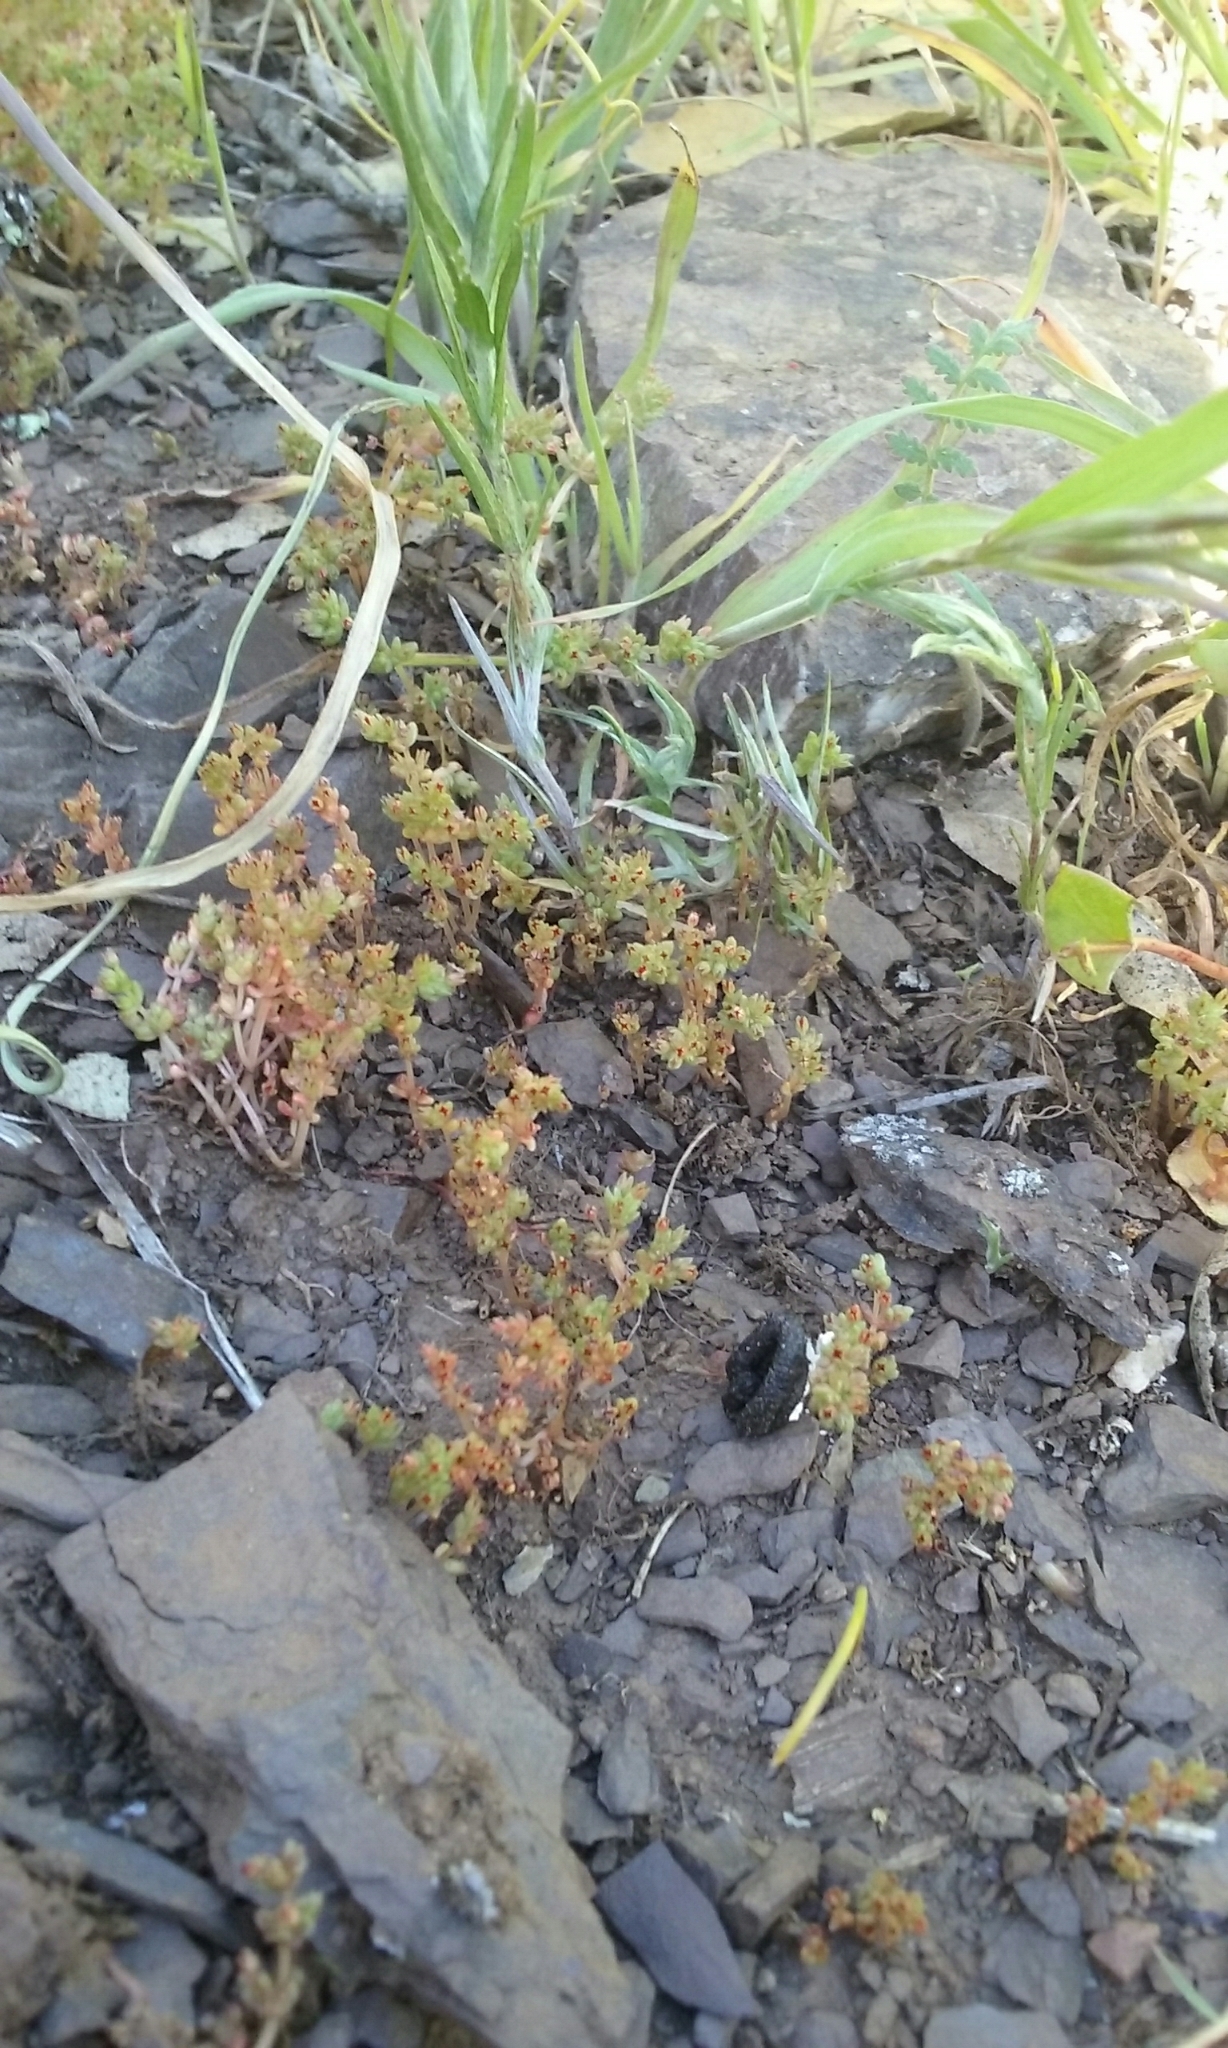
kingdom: Plantae
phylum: Tracheophyta
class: Magnoliopsida
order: Saxifragales
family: Crassulaceae
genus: Crassula
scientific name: Crassula connata
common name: Erect pygmyweed
